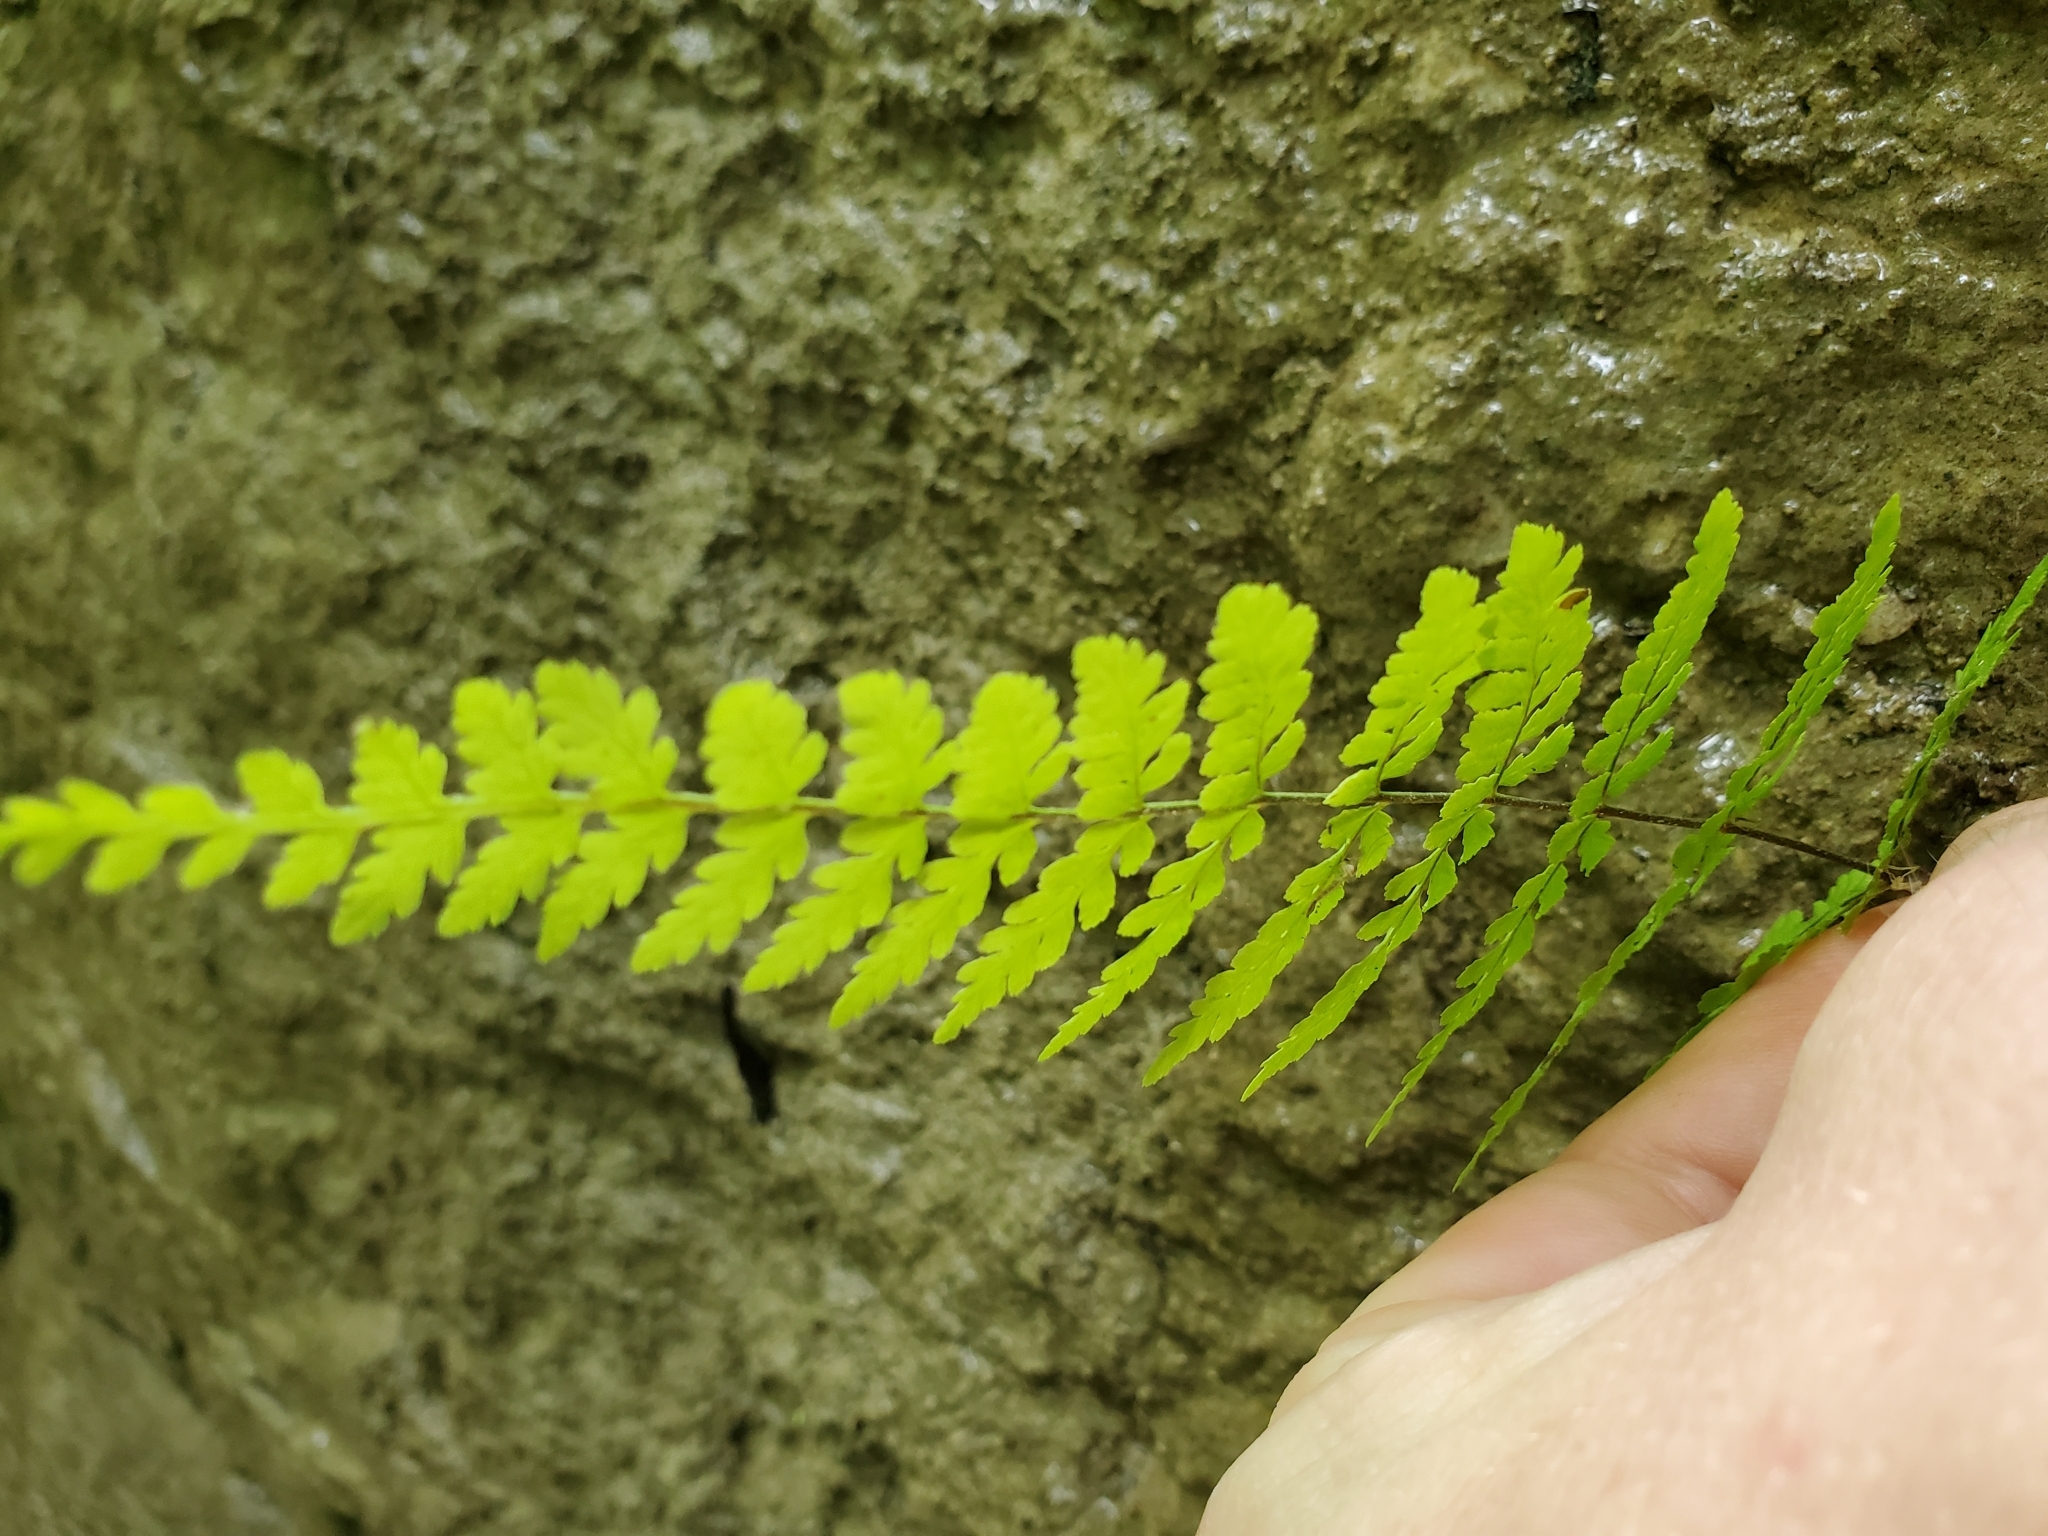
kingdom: Plantae
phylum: Tracheophyta
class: Polypodiopsida
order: Polypodiales
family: Cystopteridaceae
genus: Cystopteris
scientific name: Cystopteris bulbifera
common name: Bulblet bladder fern
